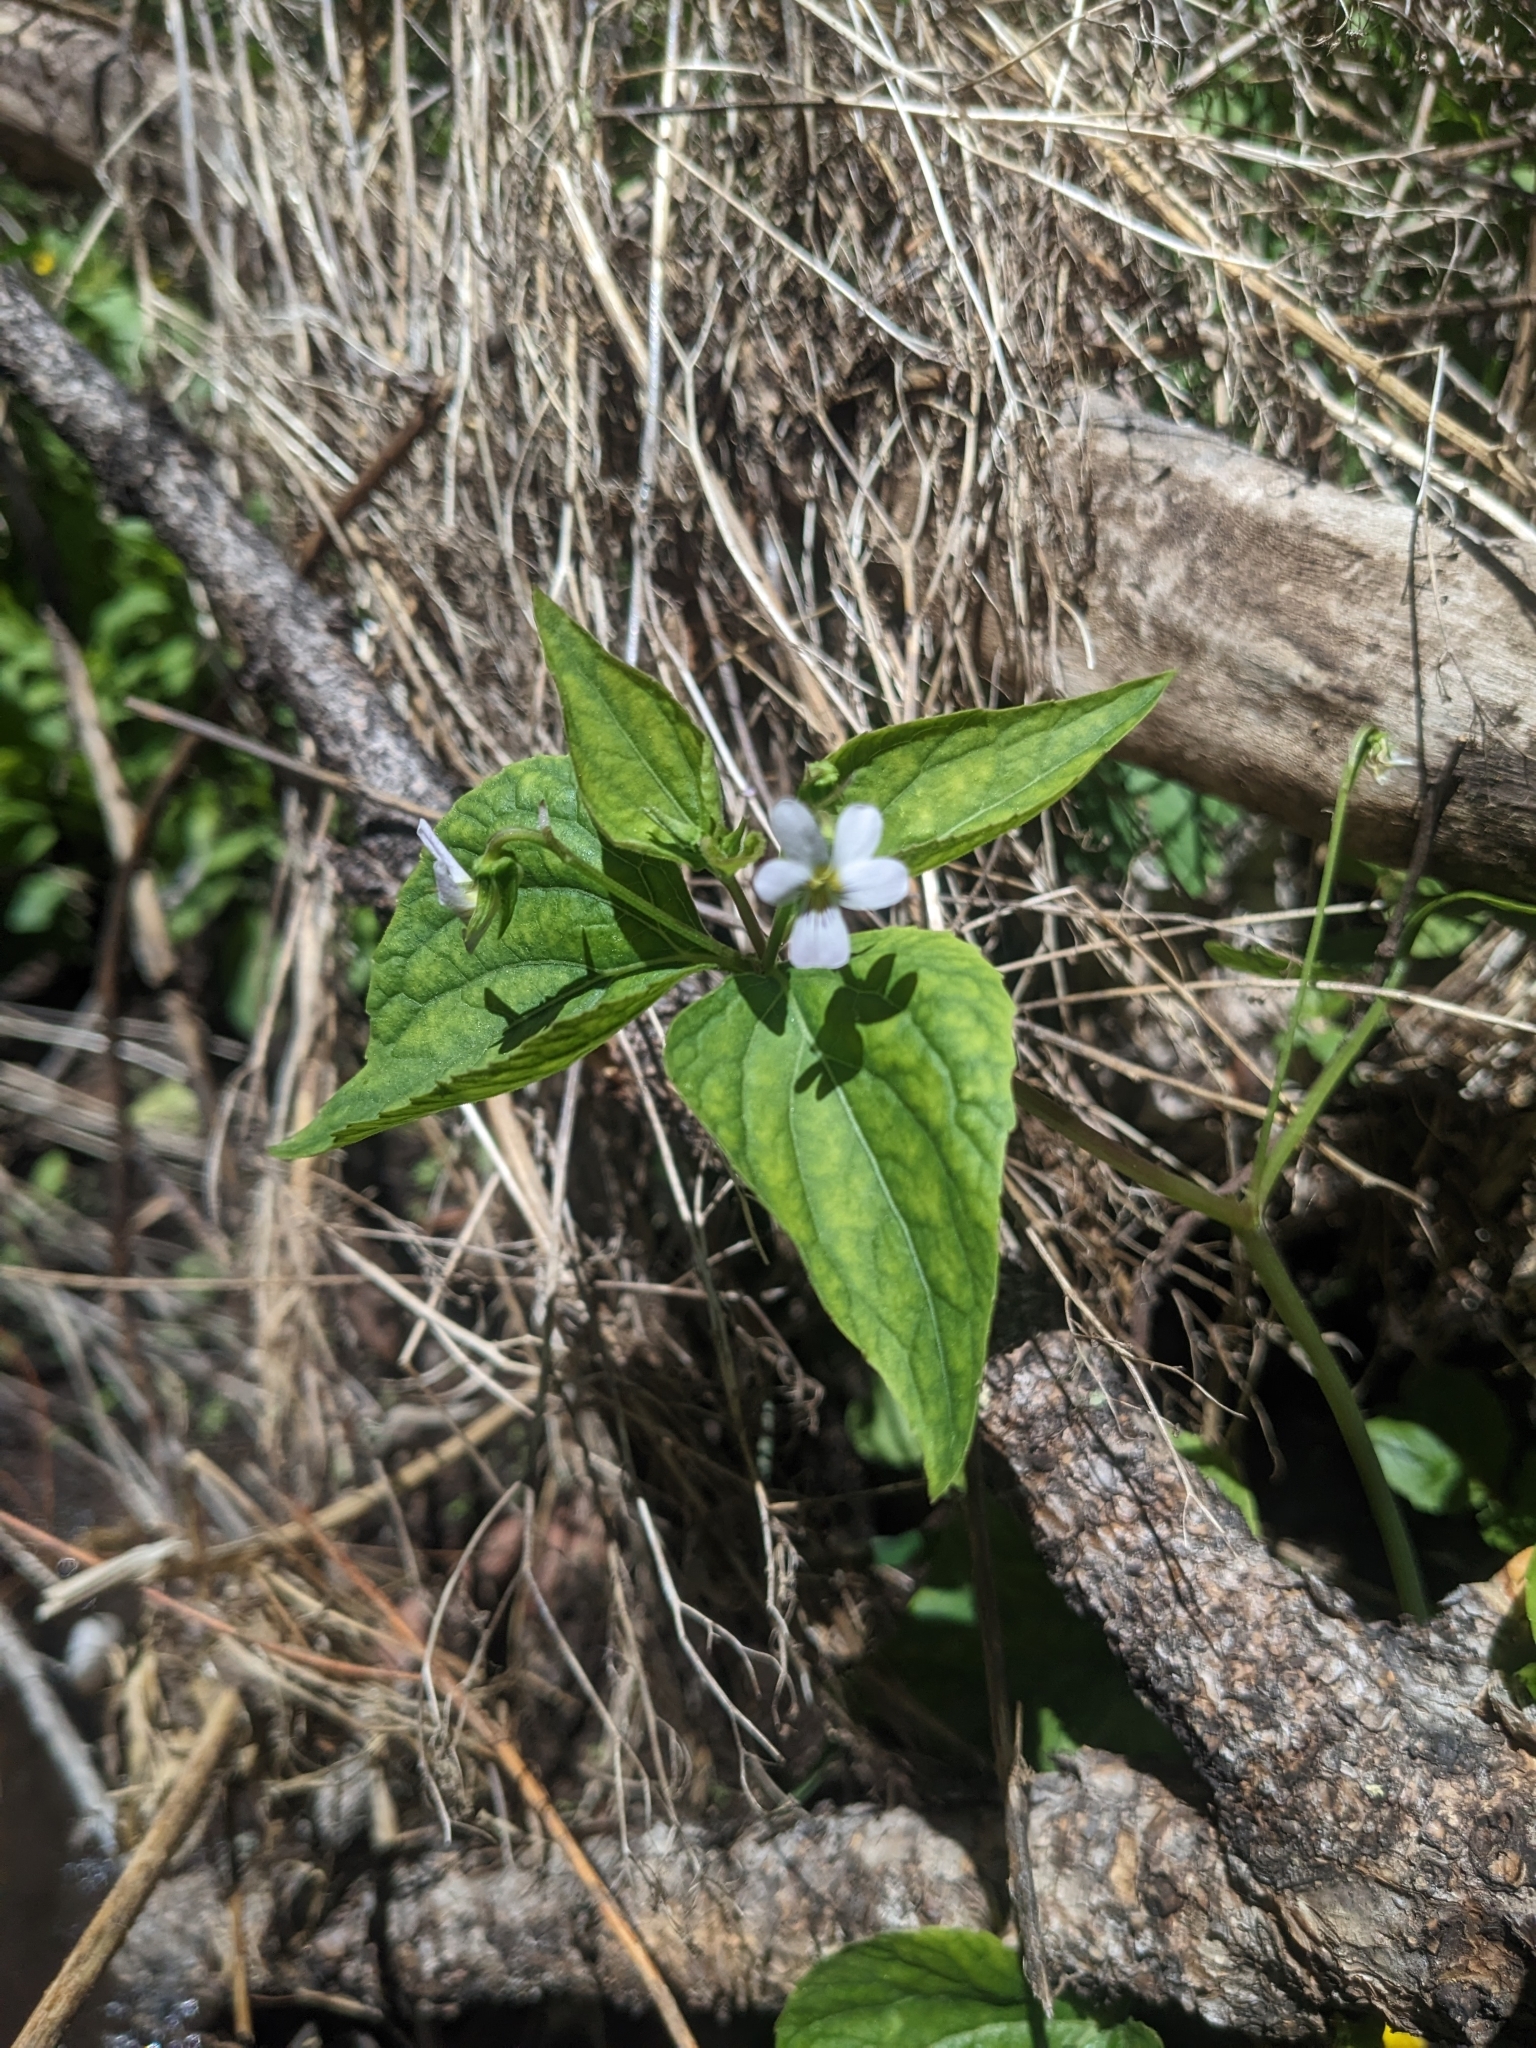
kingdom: Plantae
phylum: Tracheophyta
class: Magnoliopsida
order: Malpighiales
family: Violaceae
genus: Viola
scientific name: Viola canadensis
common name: Canada violet
